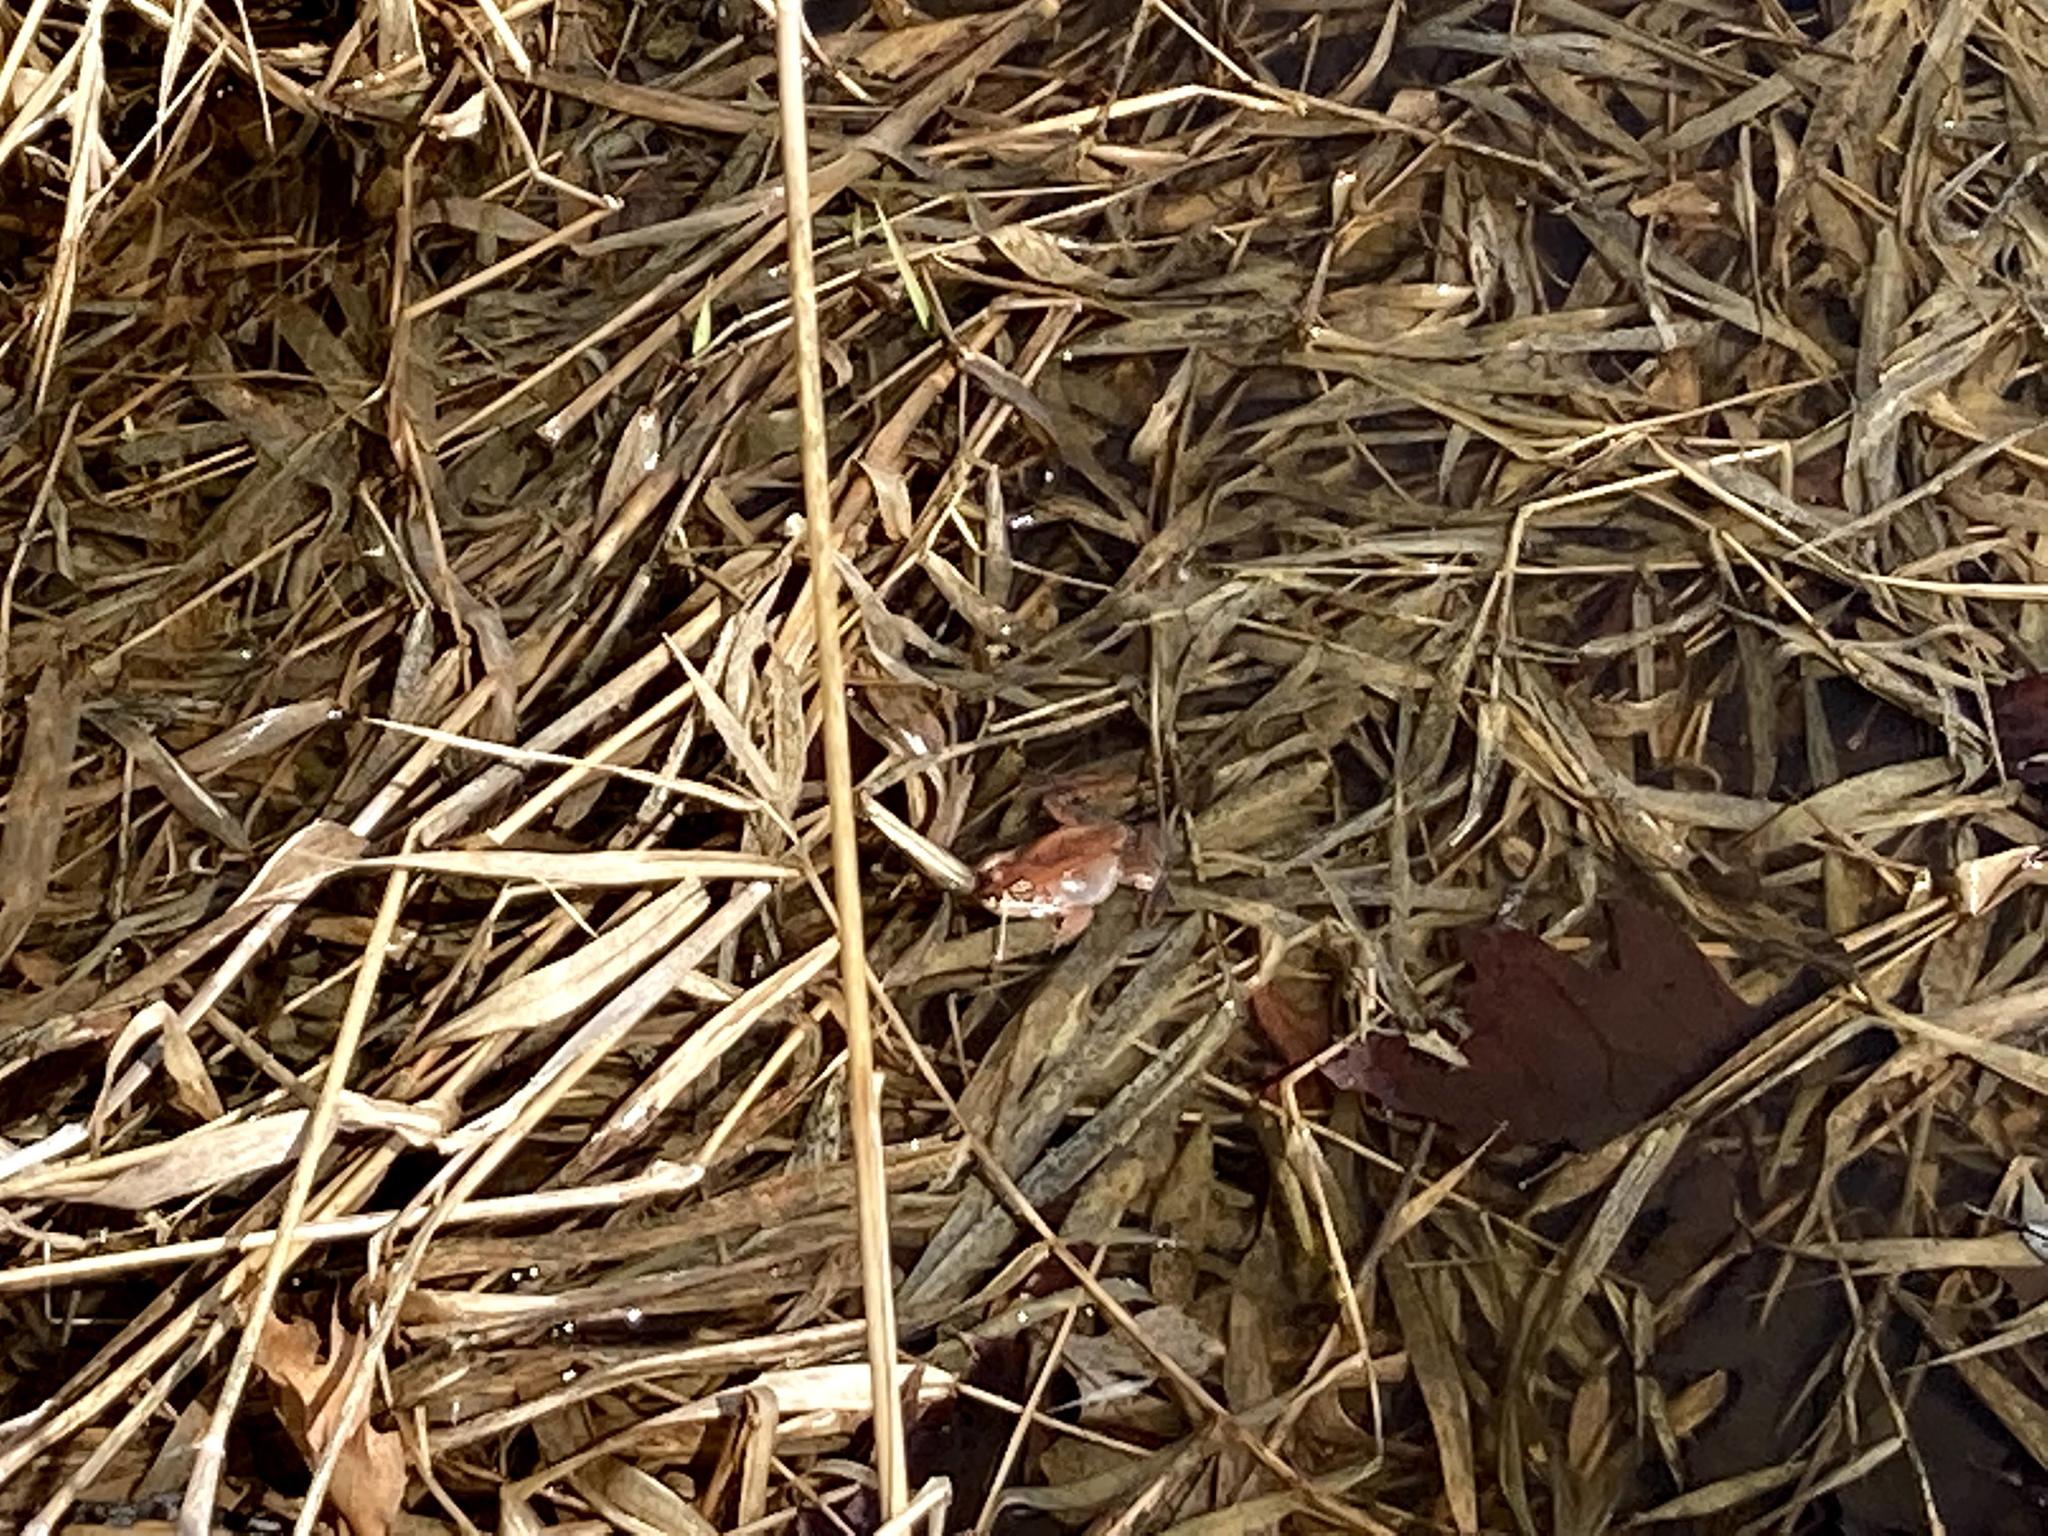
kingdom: Animalia
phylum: Chordata
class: Amphibia
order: Anura
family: Ranidae
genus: Lithobates
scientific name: Lithobates sylvaticus
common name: Wood frog
